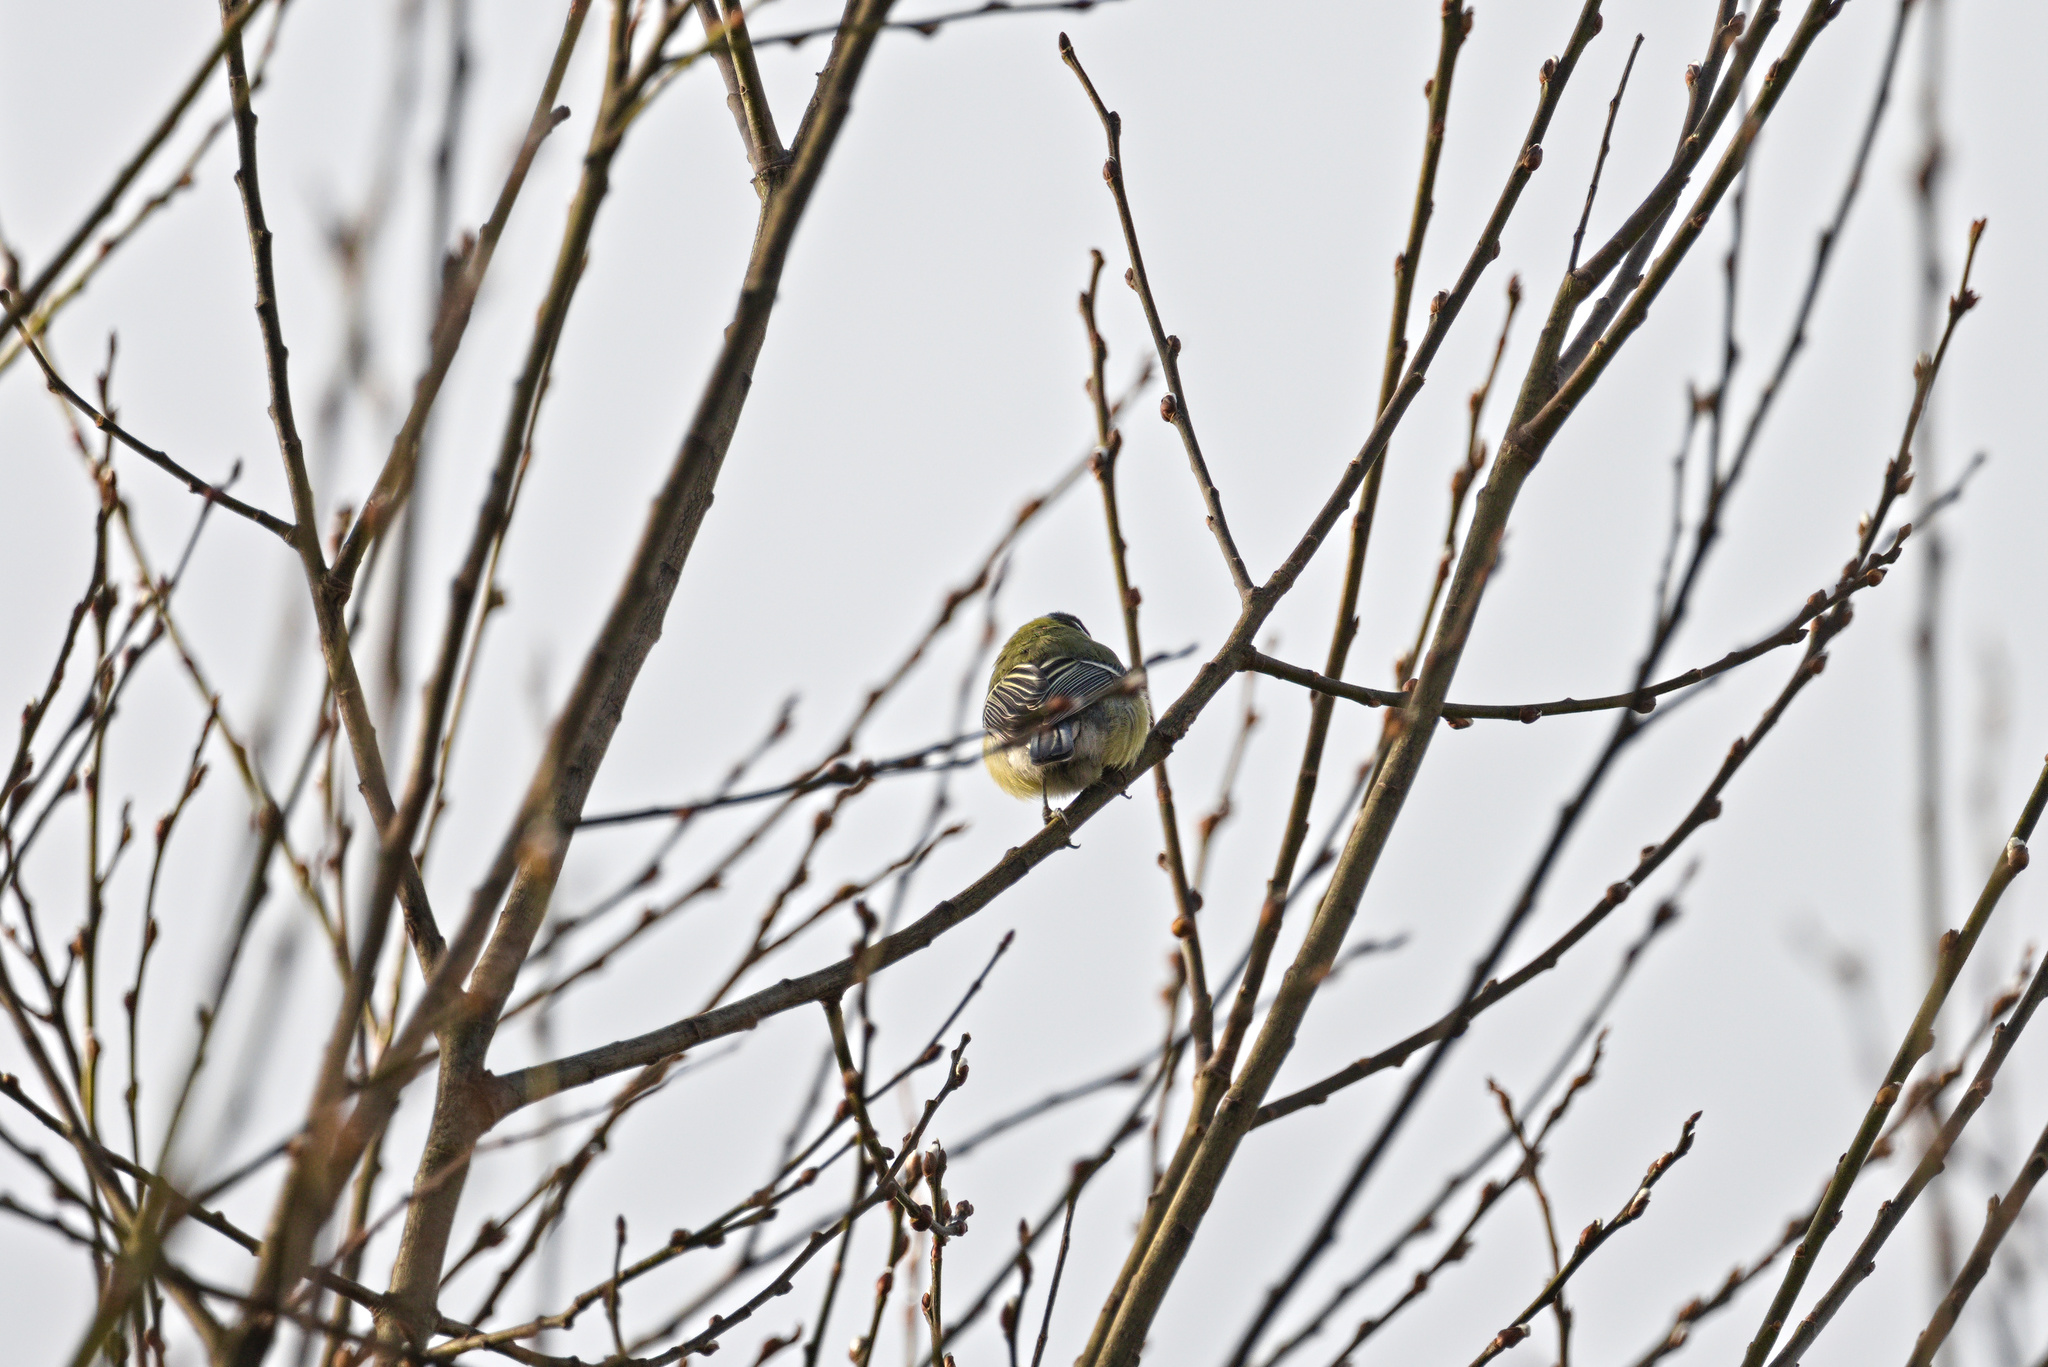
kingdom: Animalia
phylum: Chordata
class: Aves
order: Passeriformes
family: Paridae
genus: Parus
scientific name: Parus major
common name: Great tit
